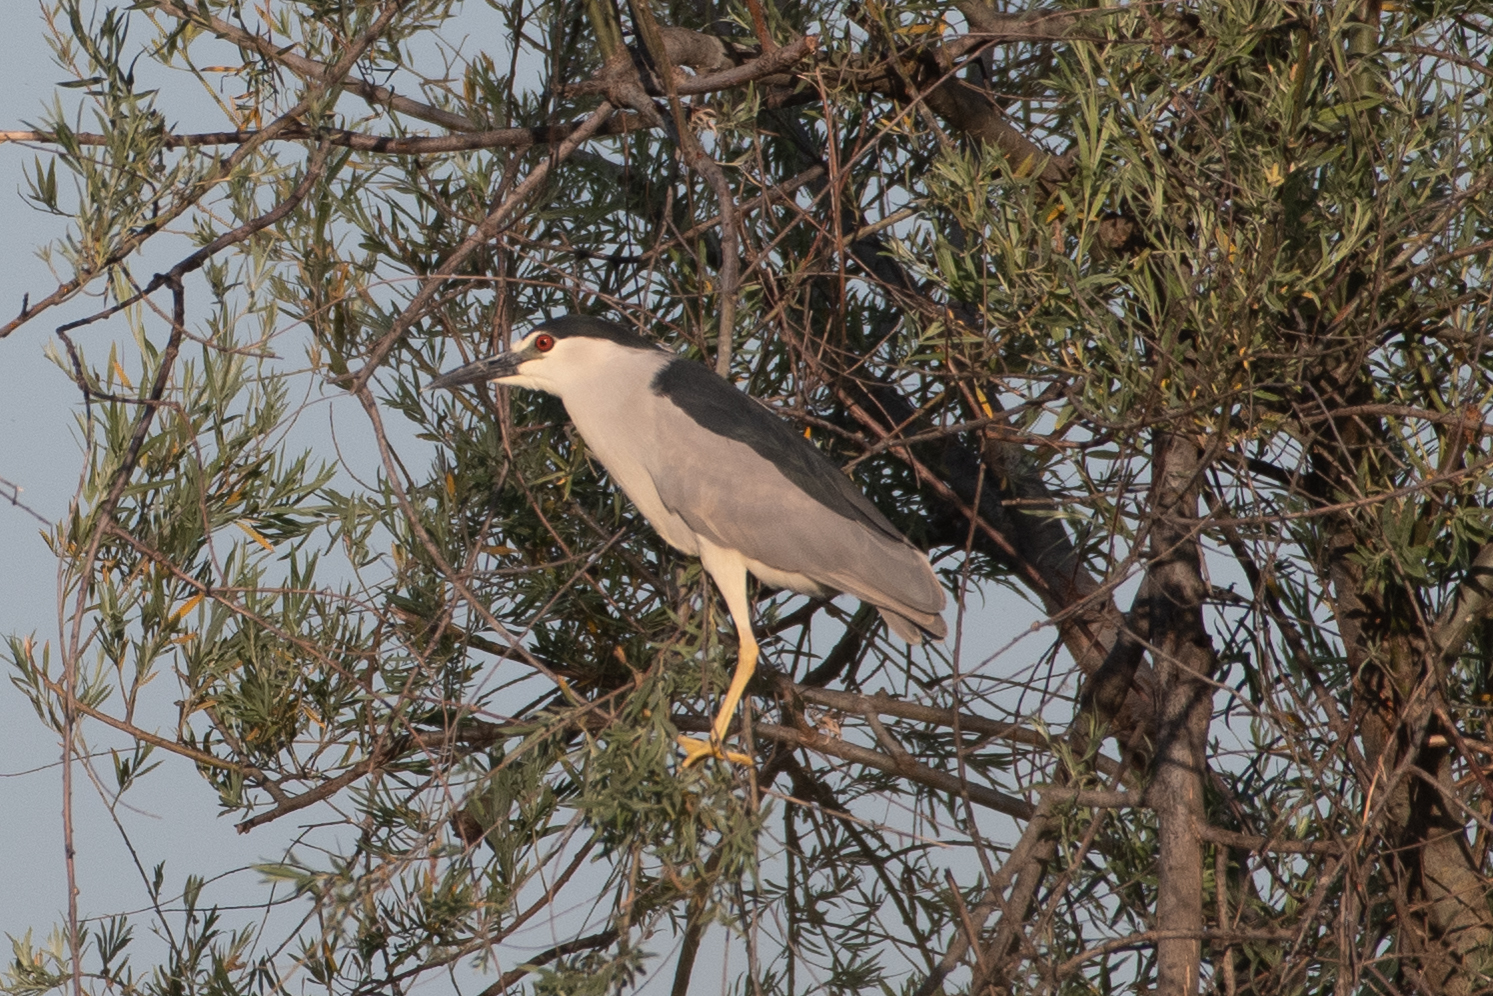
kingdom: Animalia
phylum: Chordata
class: Aves
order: Pelecaniformes
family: Ardeidae
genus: Nycticorax
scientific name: Nycticorax nycticorax
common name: Black-crowned night heron
